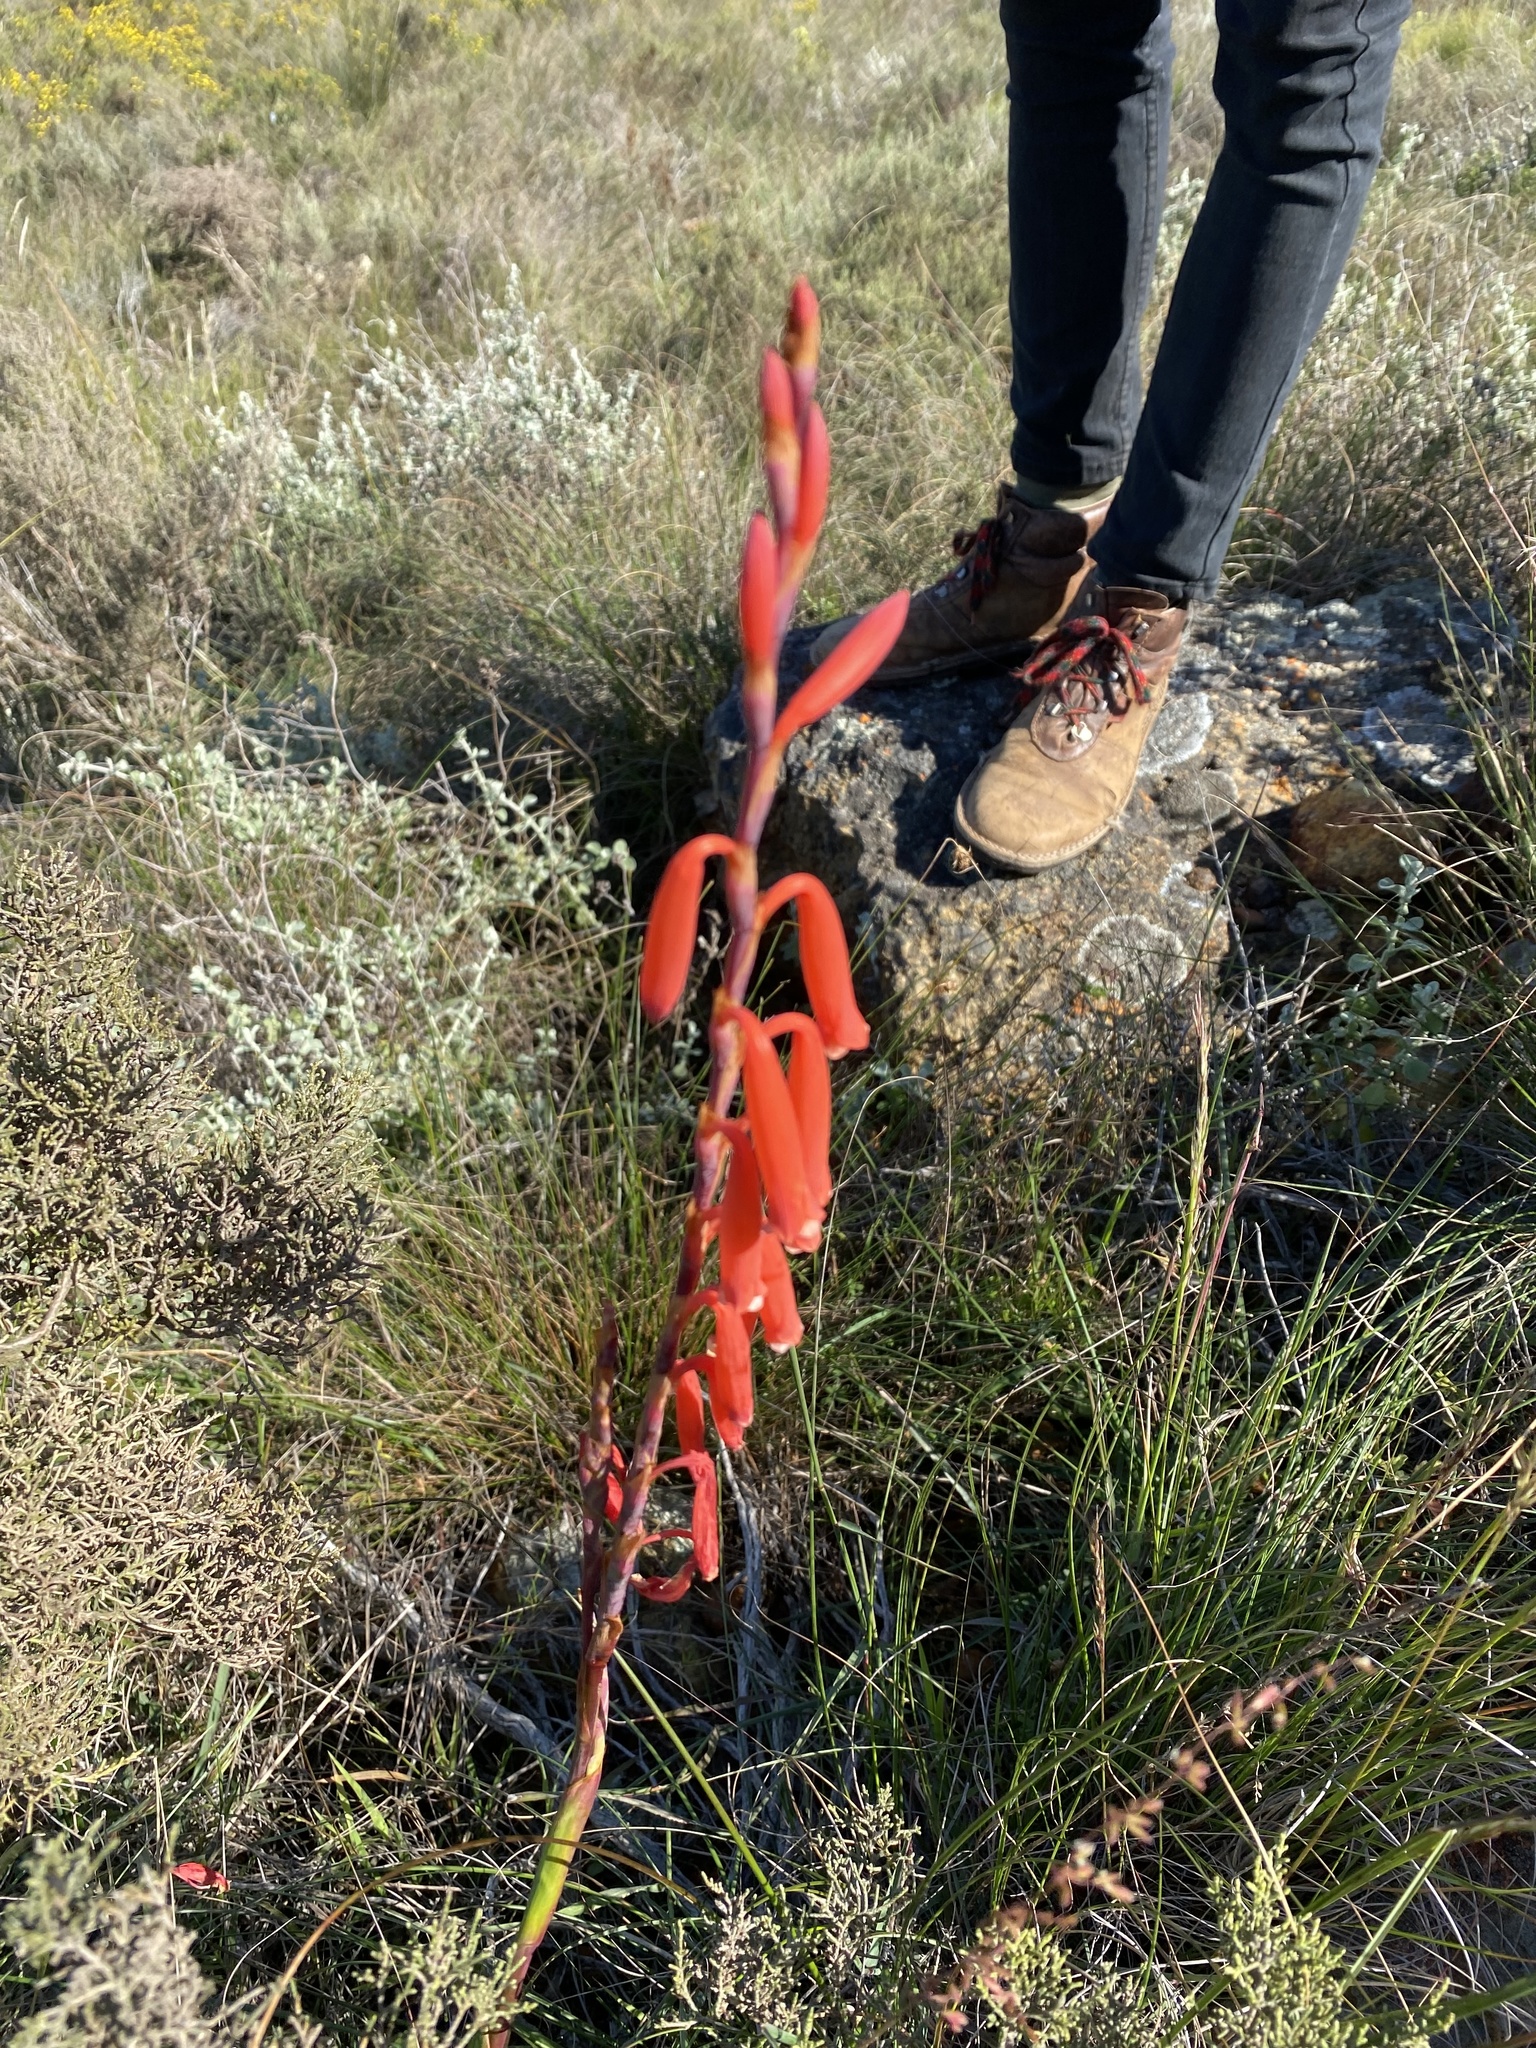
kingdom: Plantae
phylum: Tracheophyta
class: Liliopsida
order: Asparagales
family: Iridaceae
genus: Watsonia
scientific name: Watsonia aletroides
